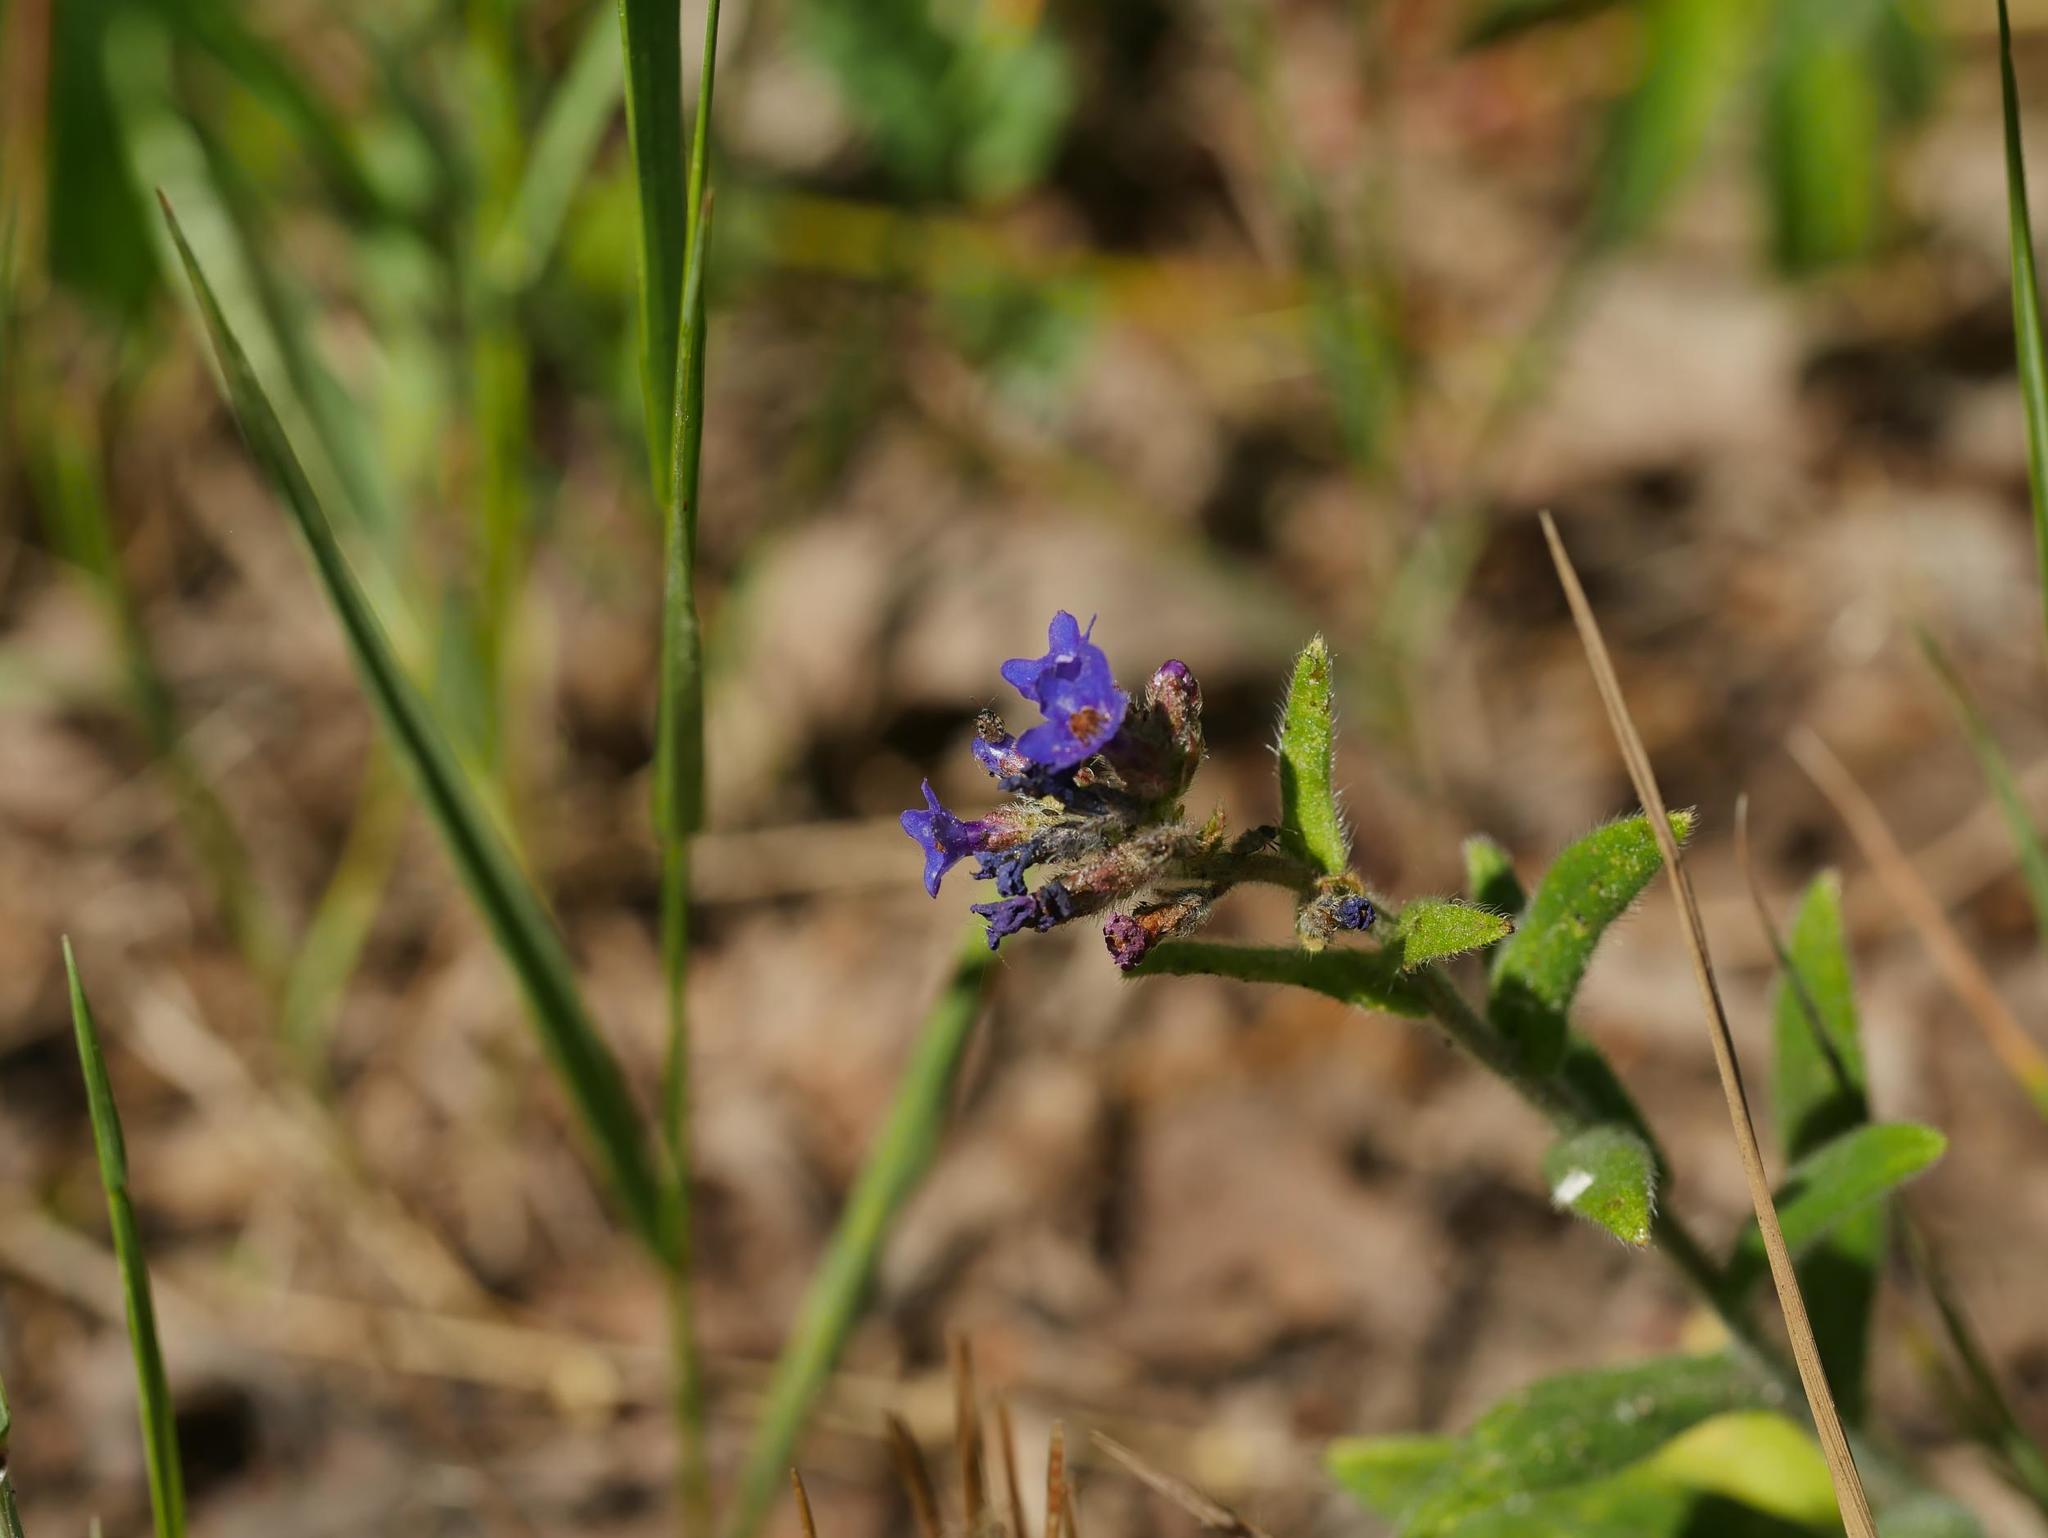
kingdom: Plantae
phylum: Tracheophyta
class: Magnoliopsida
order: Boraginales
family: Boraginaceae
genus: Anchusa
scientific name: Anchusa officinalis
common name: Alkanet
